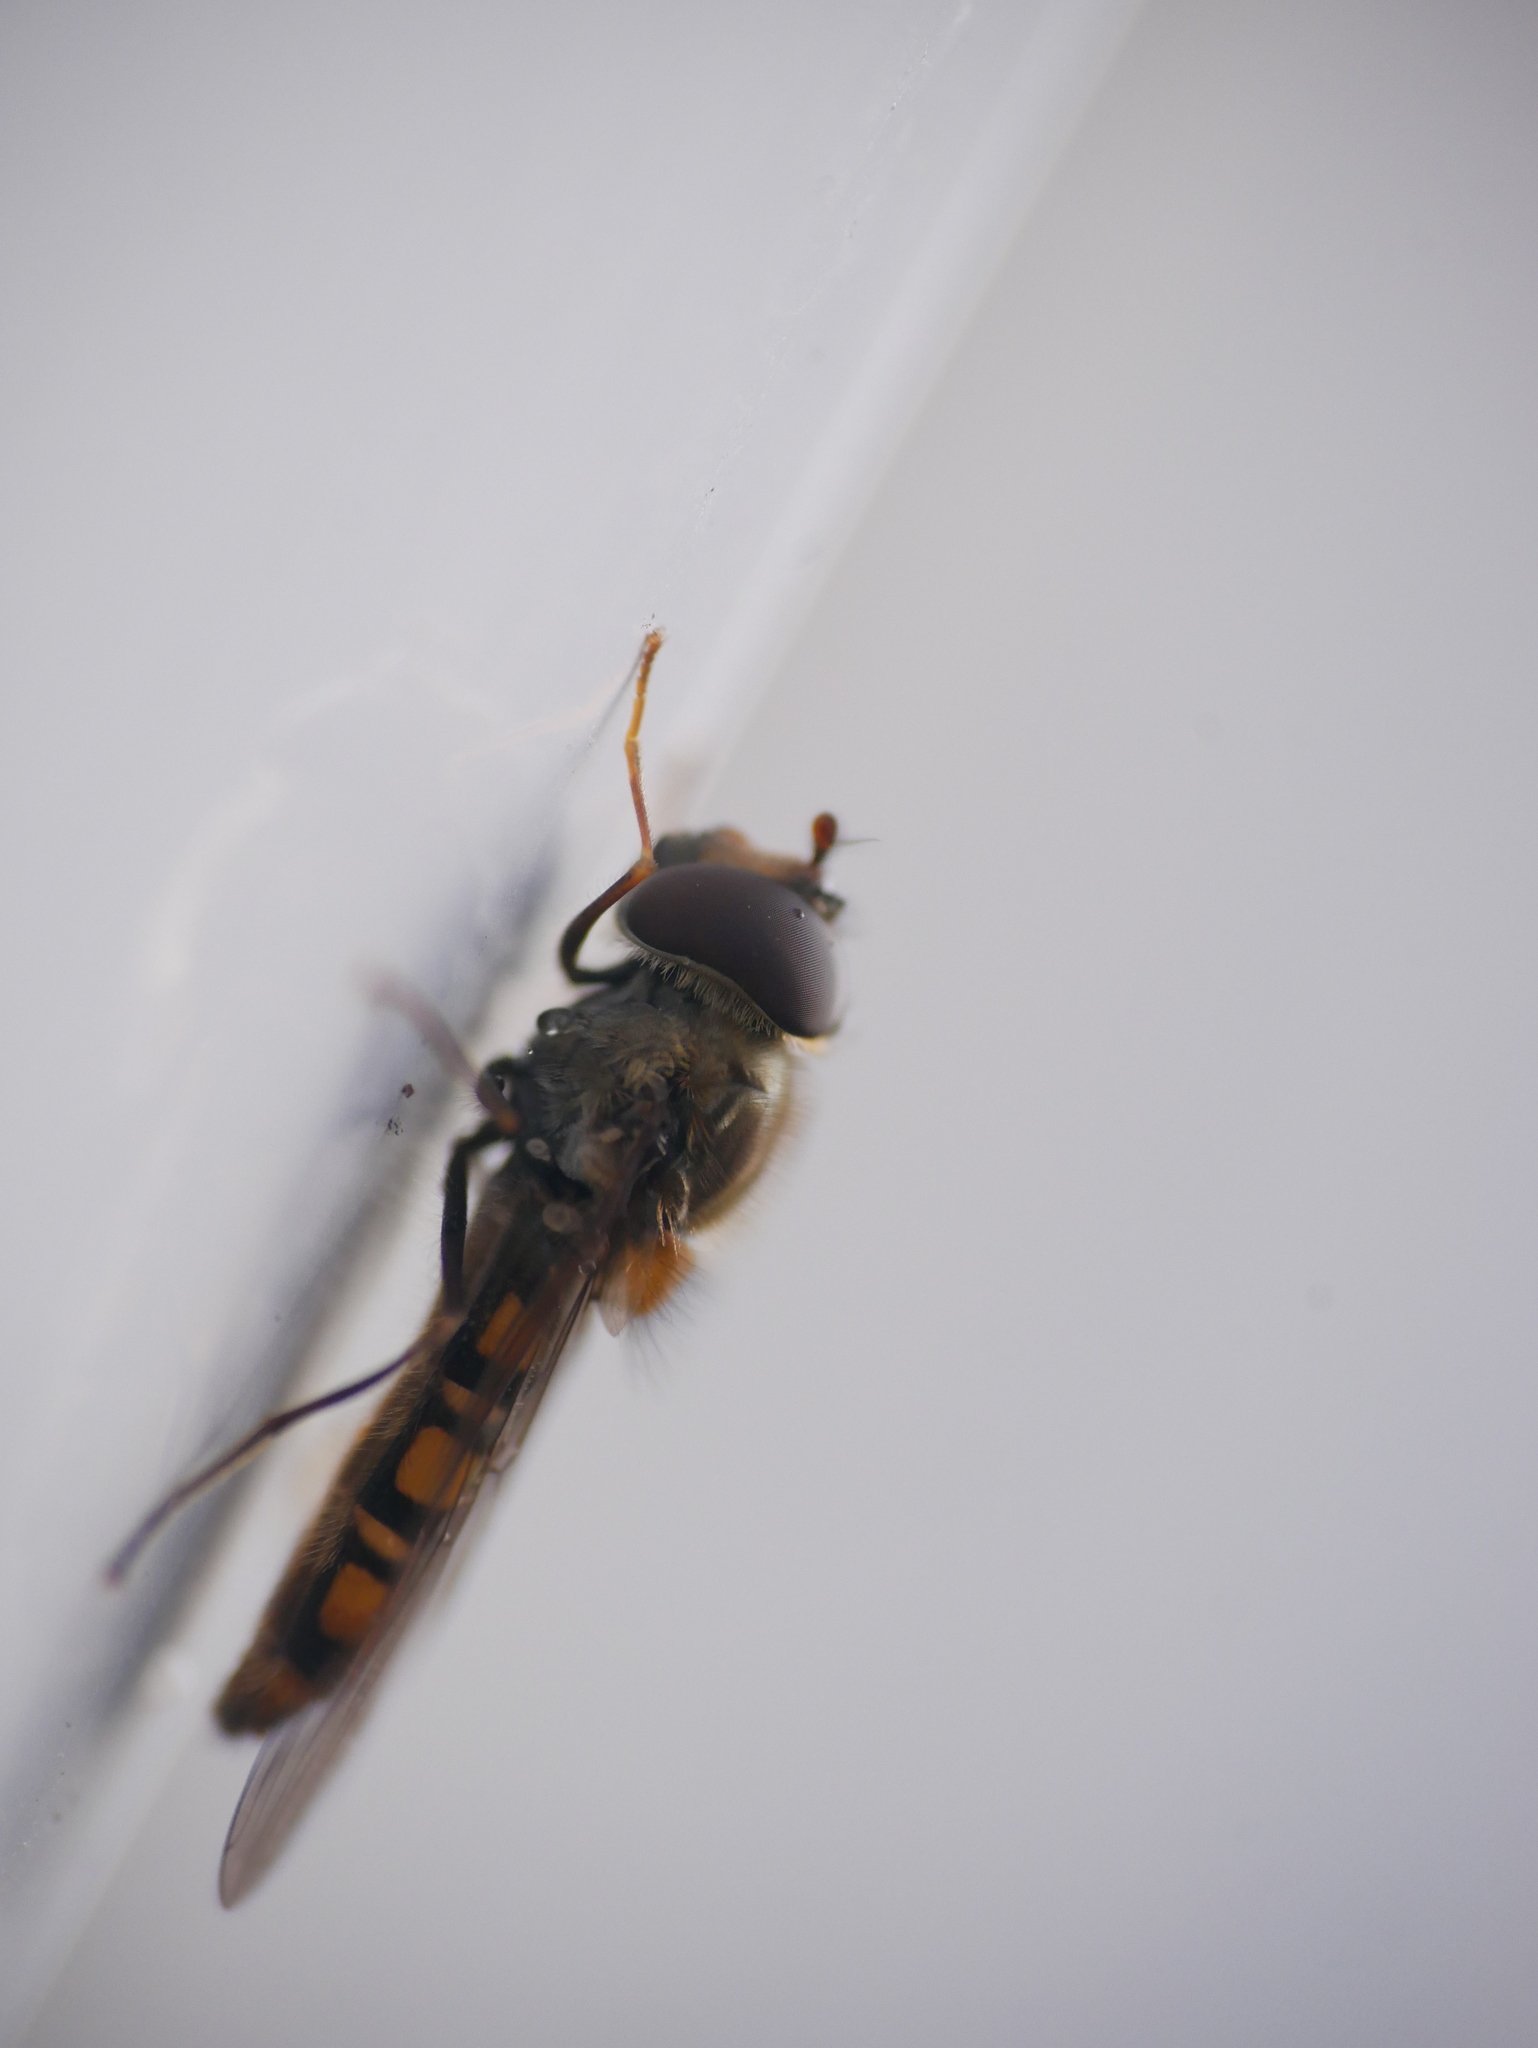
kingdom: Animalia
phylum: Arthropoda
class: Insecta
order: Diptera
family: Syrphidae
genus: Episyrphus
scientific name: Episyrphus balteatus
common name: Marmalade hoverfly
